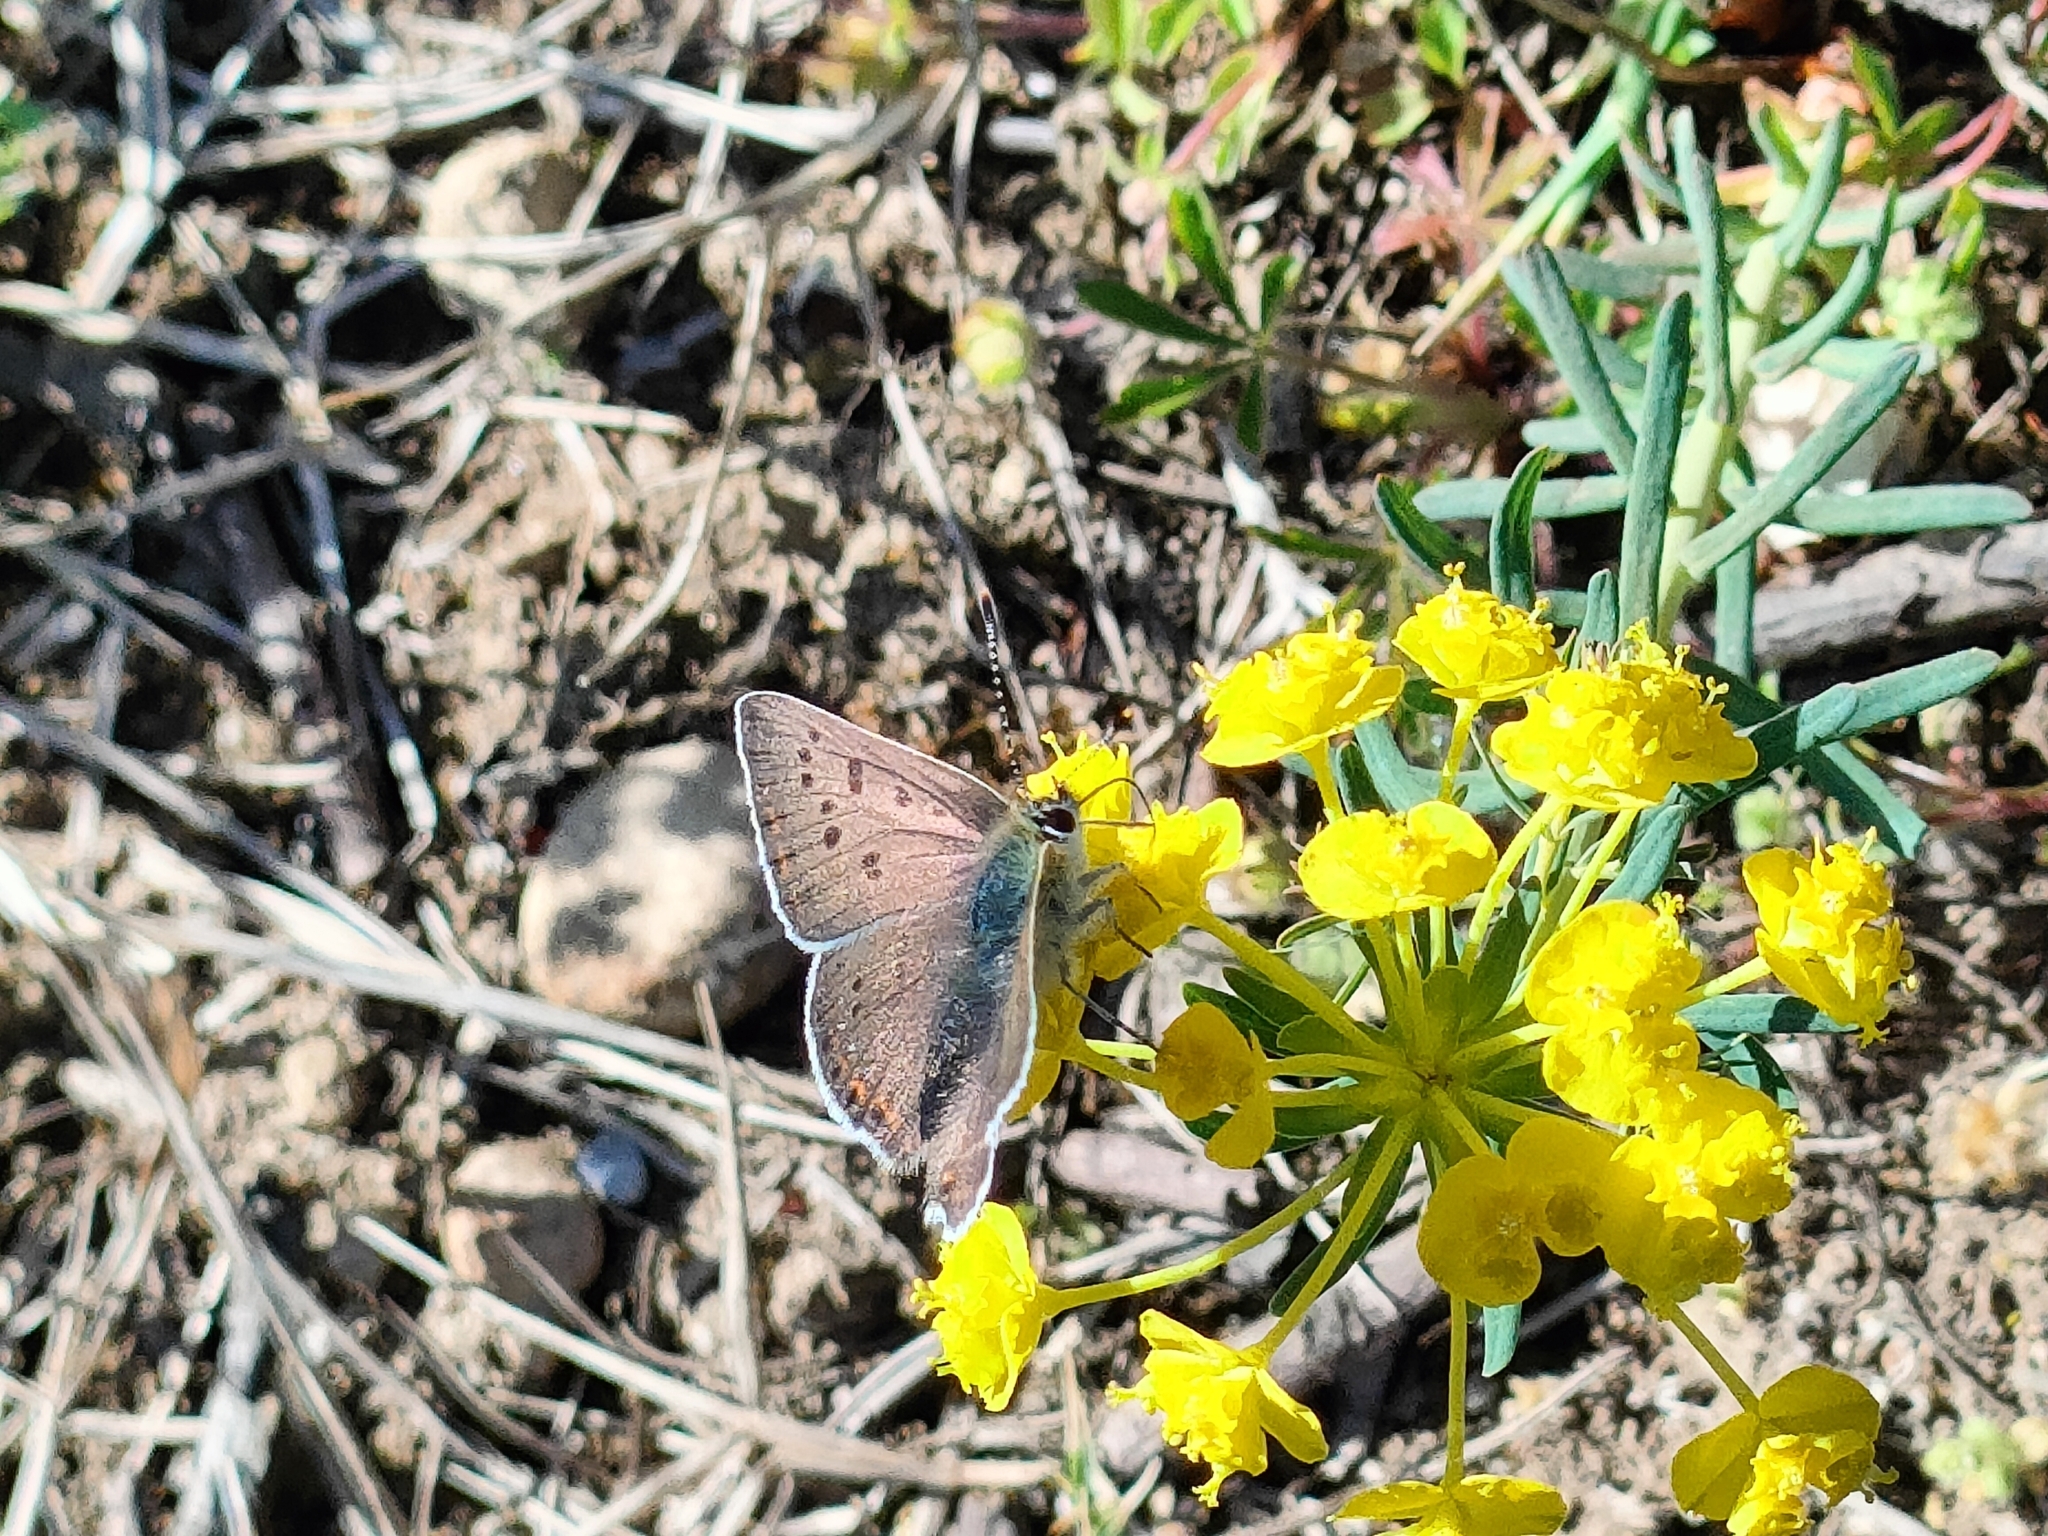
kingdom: Animalia
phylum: Arthropoda
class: Insecta
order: Lepidoptera
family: Lycaenidae
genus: Loweia
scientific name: Loweia tityrus
